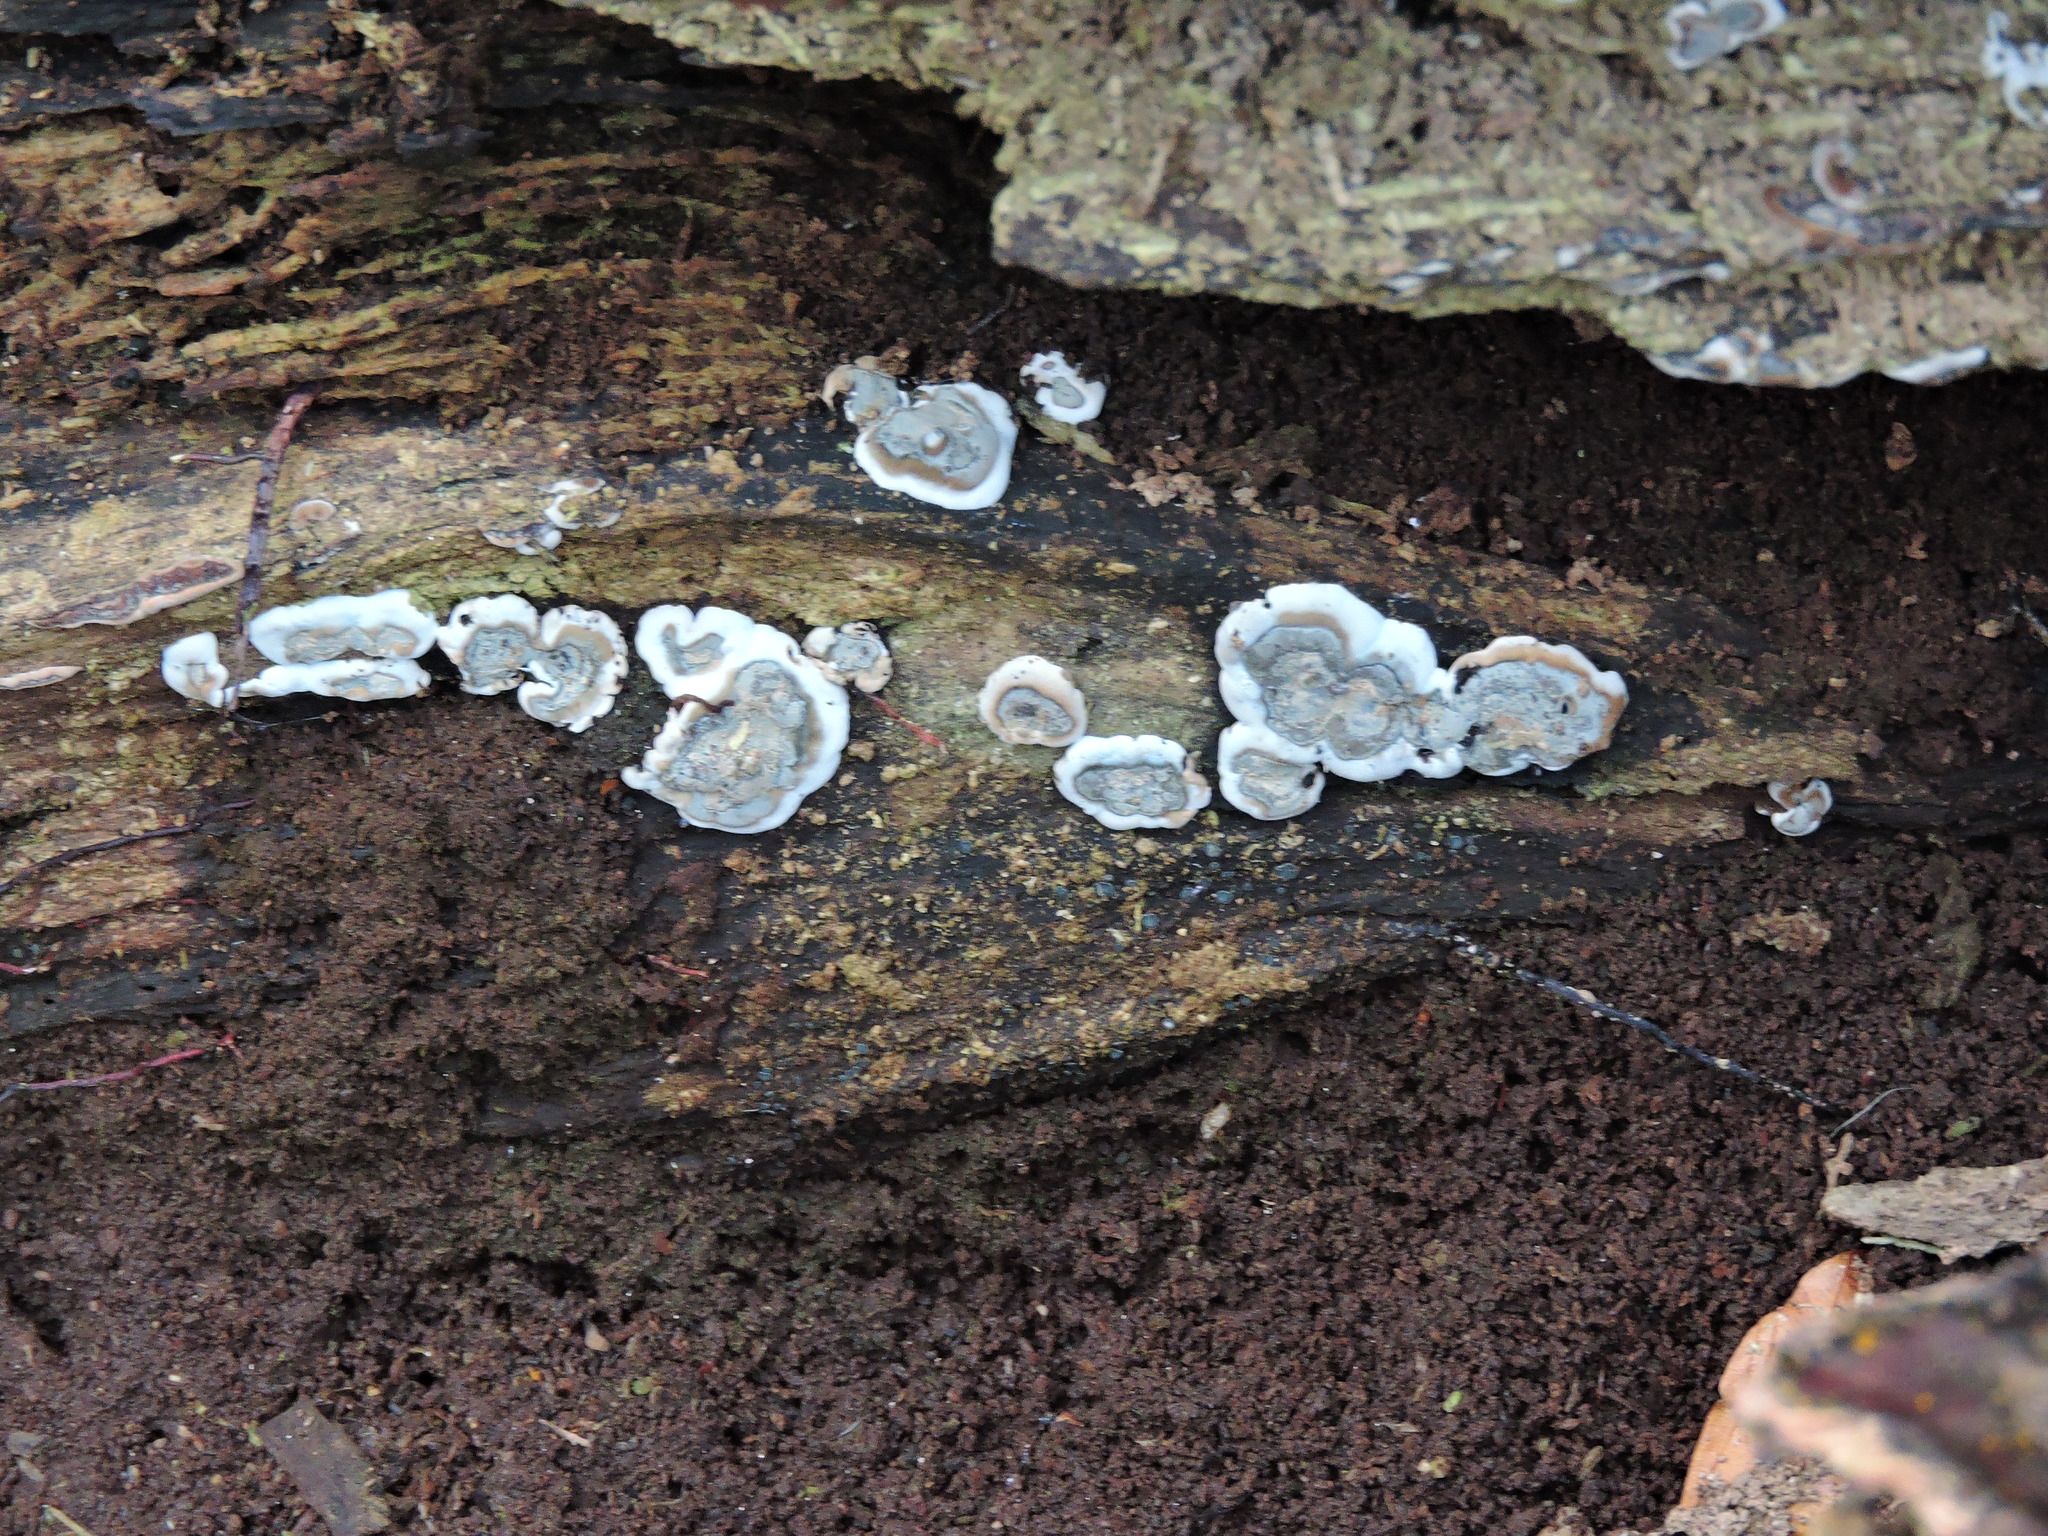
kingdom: Fungi
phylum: Ascomycota
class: Sordariomycetes
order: Xylariales
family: Xylariaceae
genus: Kretzschmaria
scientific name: Kretzschmaria deusta
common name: Brittle cinder
